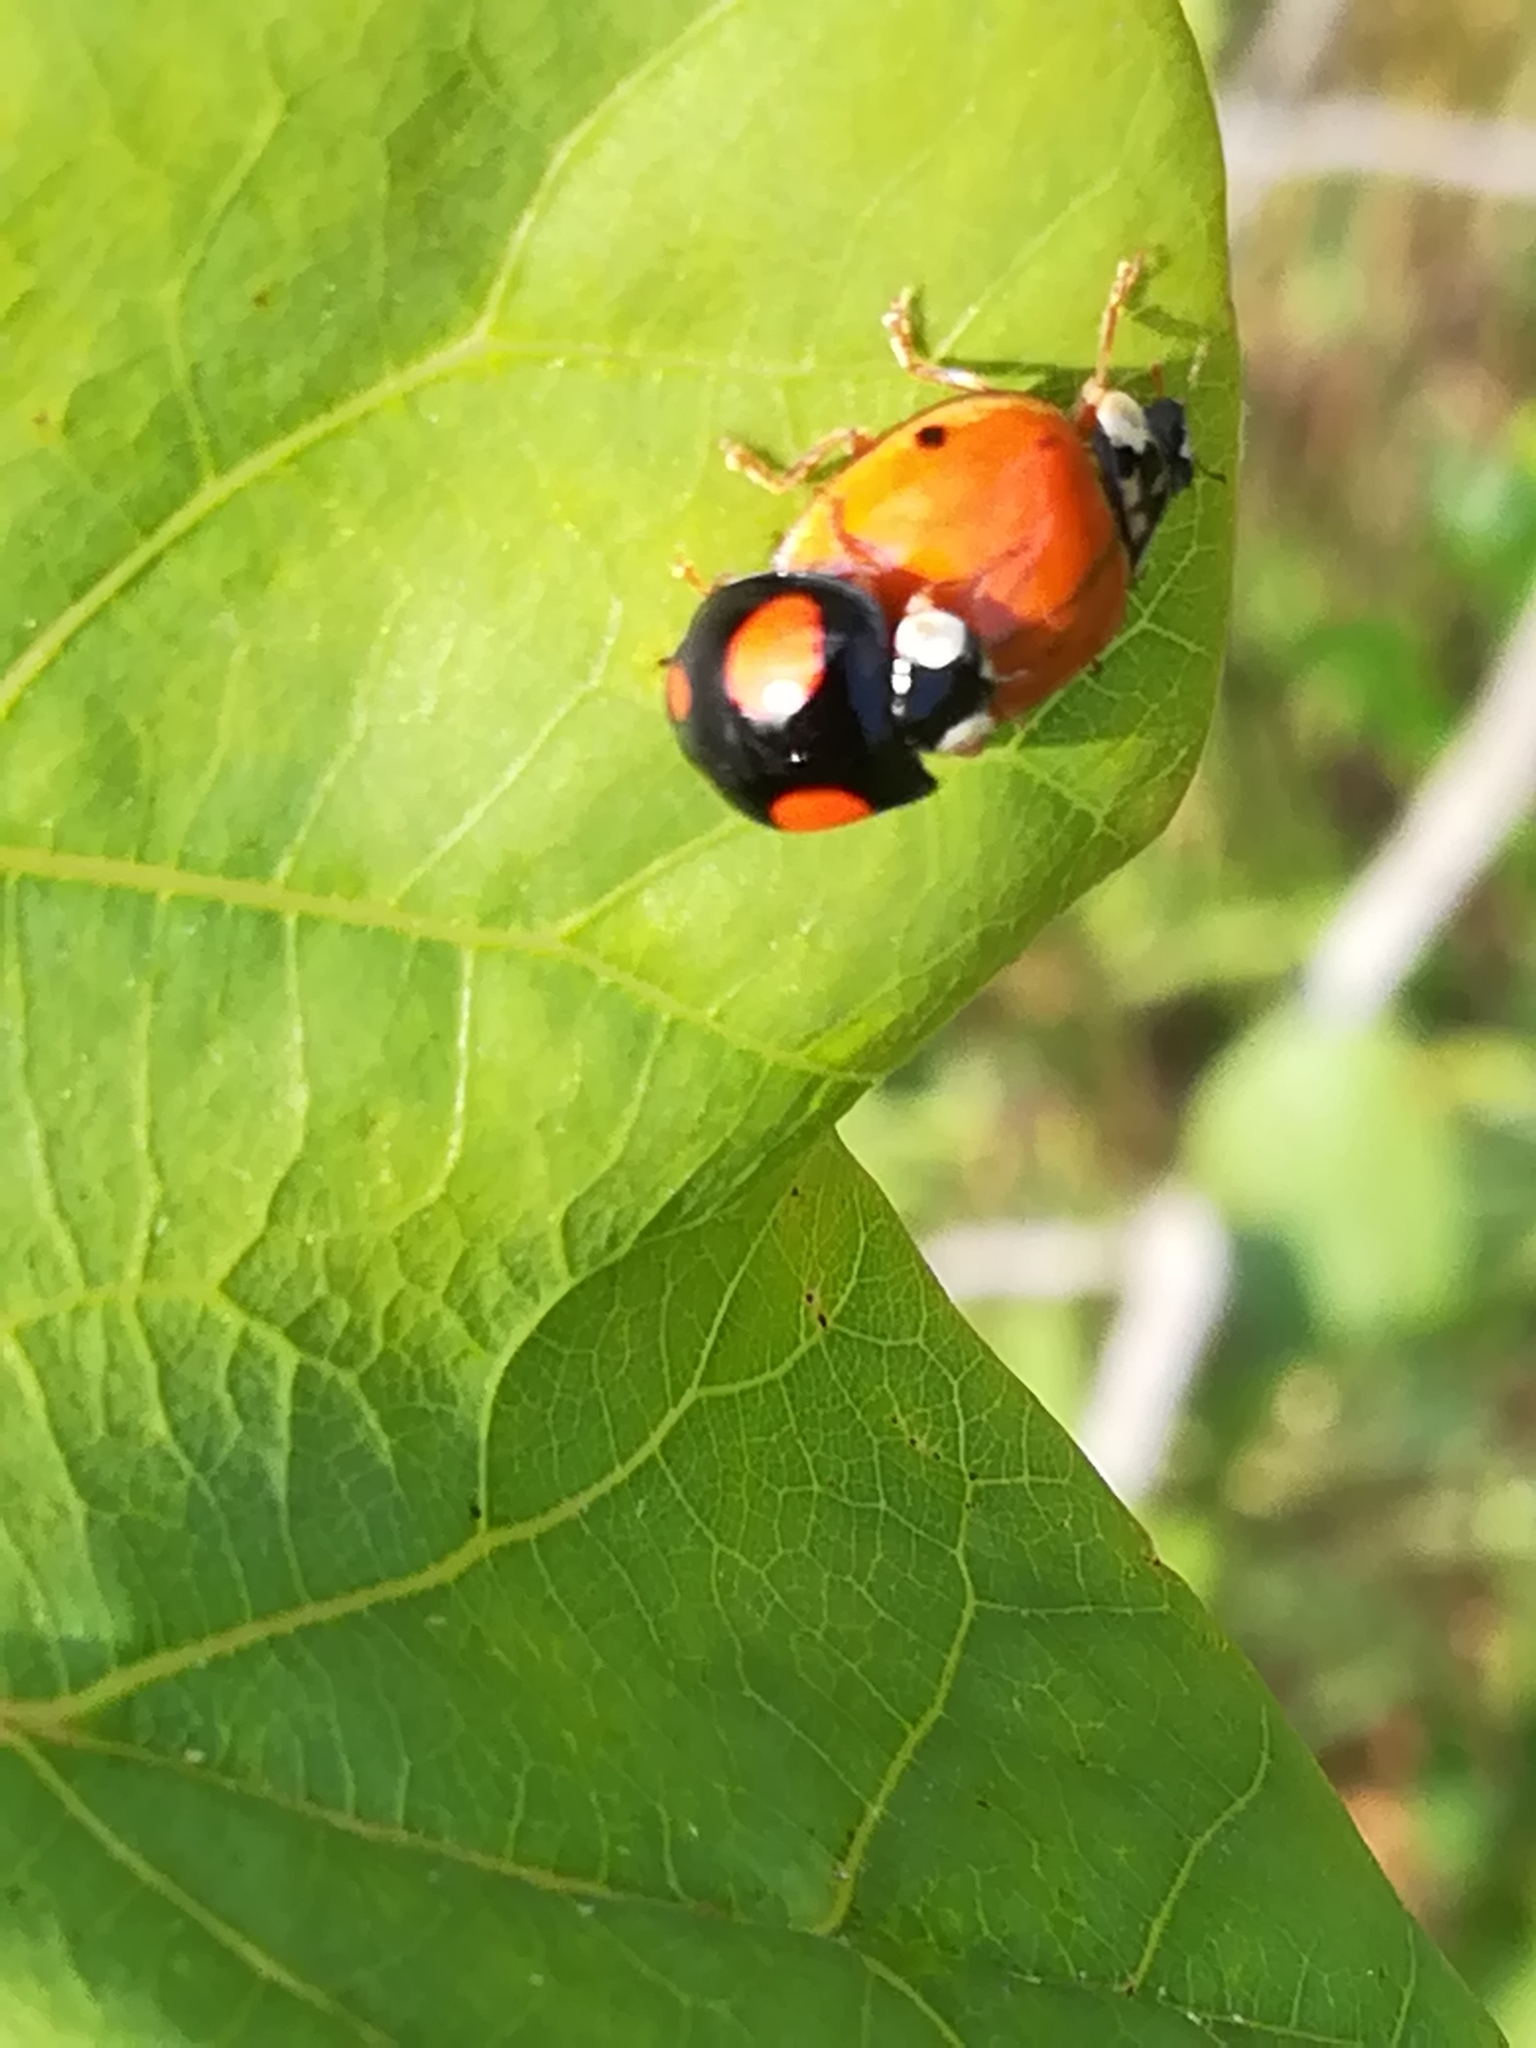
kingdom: Animalia
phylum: Arthropoda
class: Insecta
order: Coleoptera
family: Coccinellidae
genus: Harmonia
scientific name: Harmonia axyridis
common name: Harlequin ladybird
